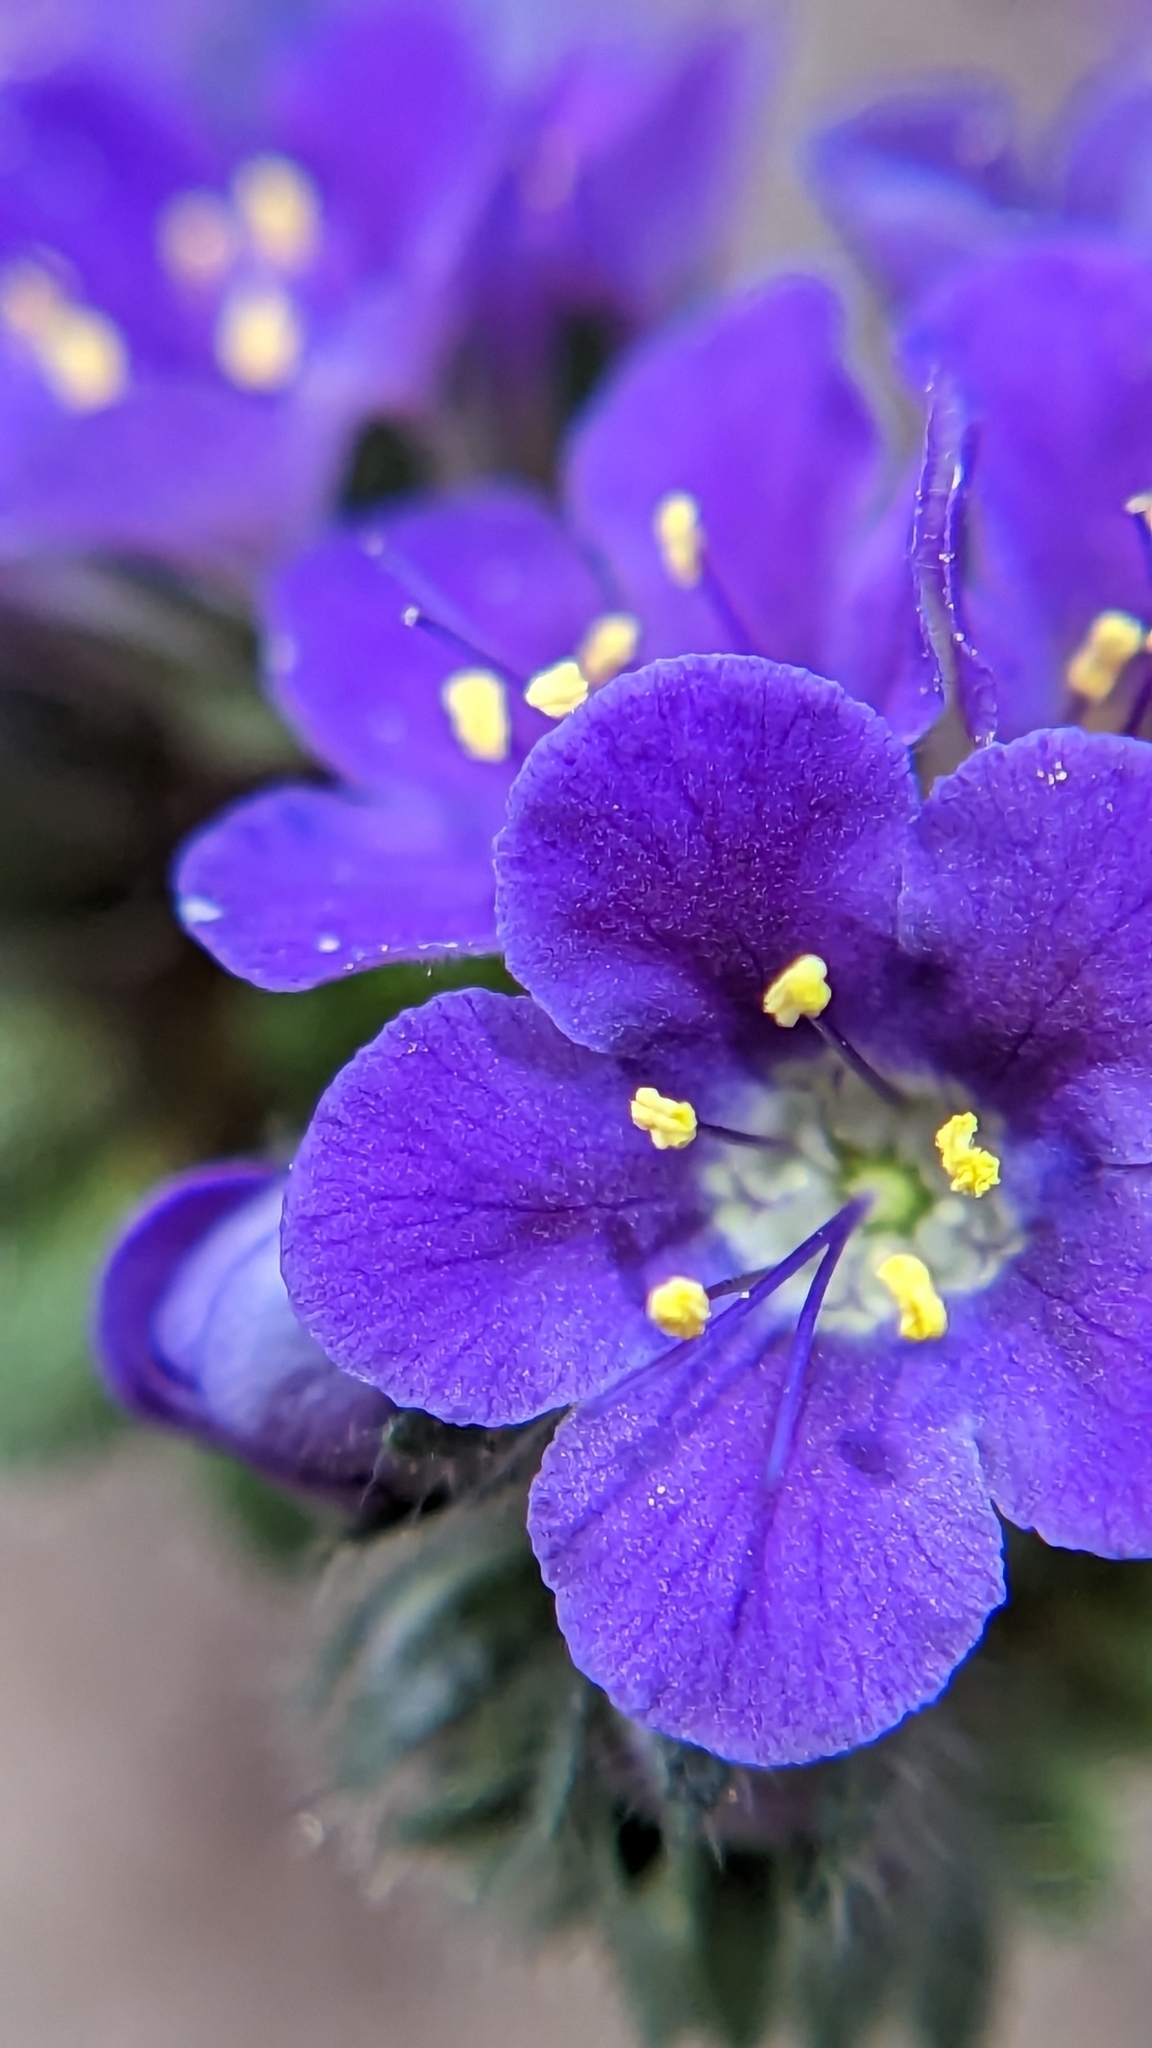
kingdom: Plantae
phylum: Tracheophyta
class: Magnoliopsida
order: Boraginales
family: Hydrophyllaceae
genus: Phacelia
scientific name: Phacelia crenulata
